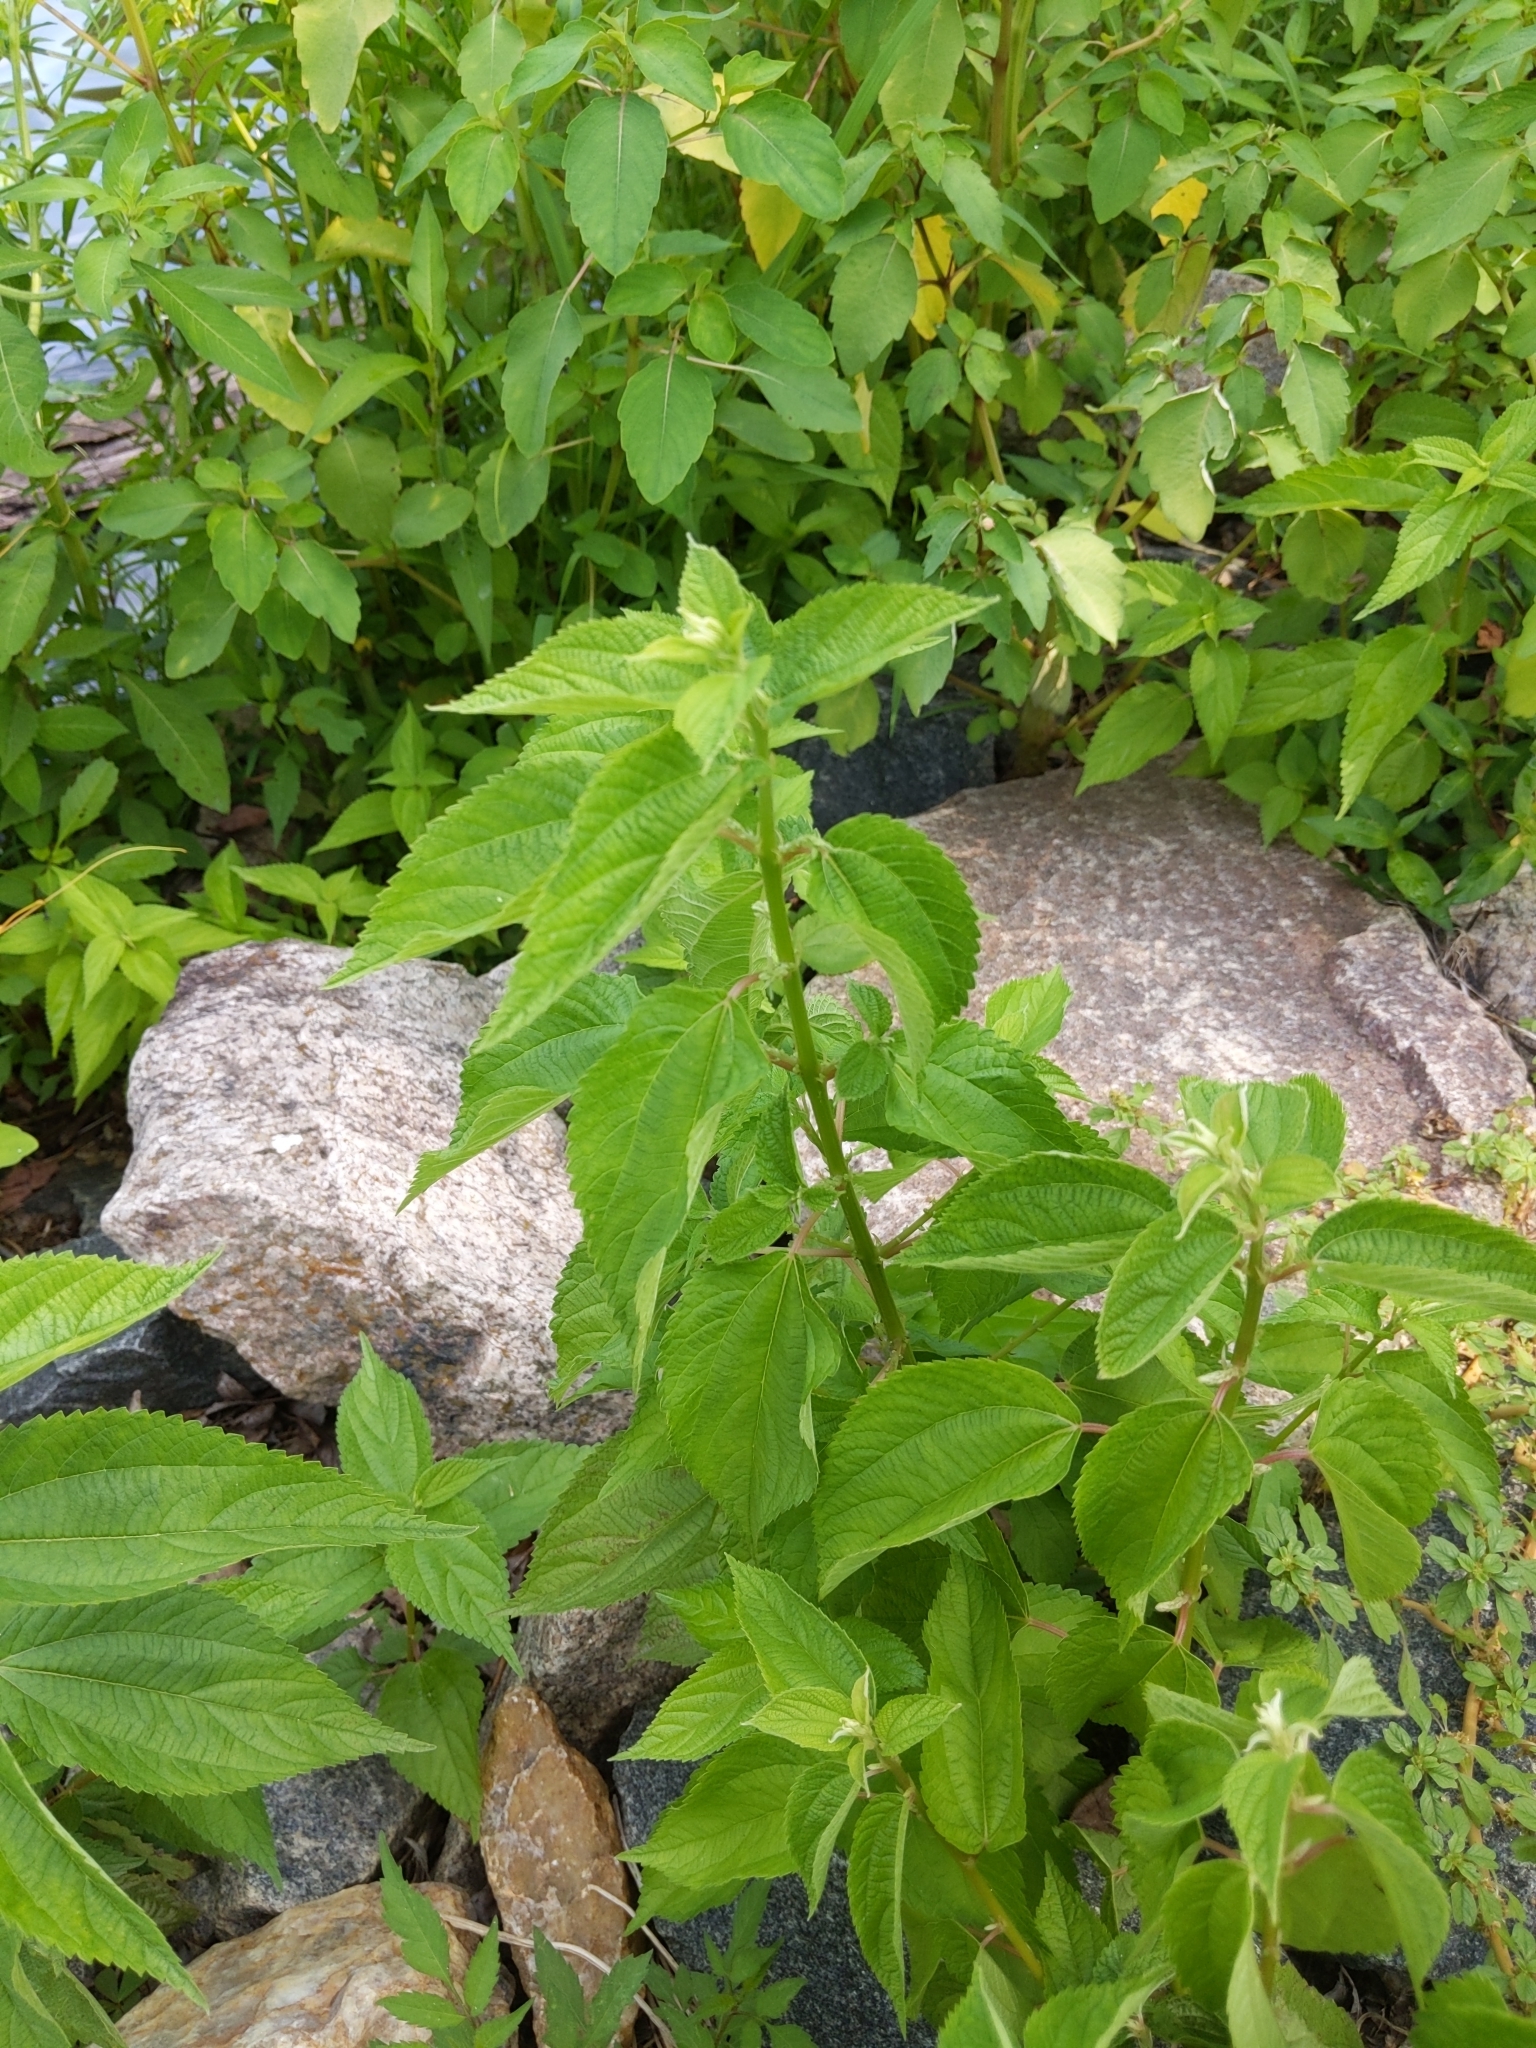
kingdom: Plantae
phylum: Tracheophyta
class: Magnoliopsida
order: Rosales
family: Urticaceae
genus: Boehmeria
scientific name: Boehmeria cylindrica
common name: Bog-hemp
